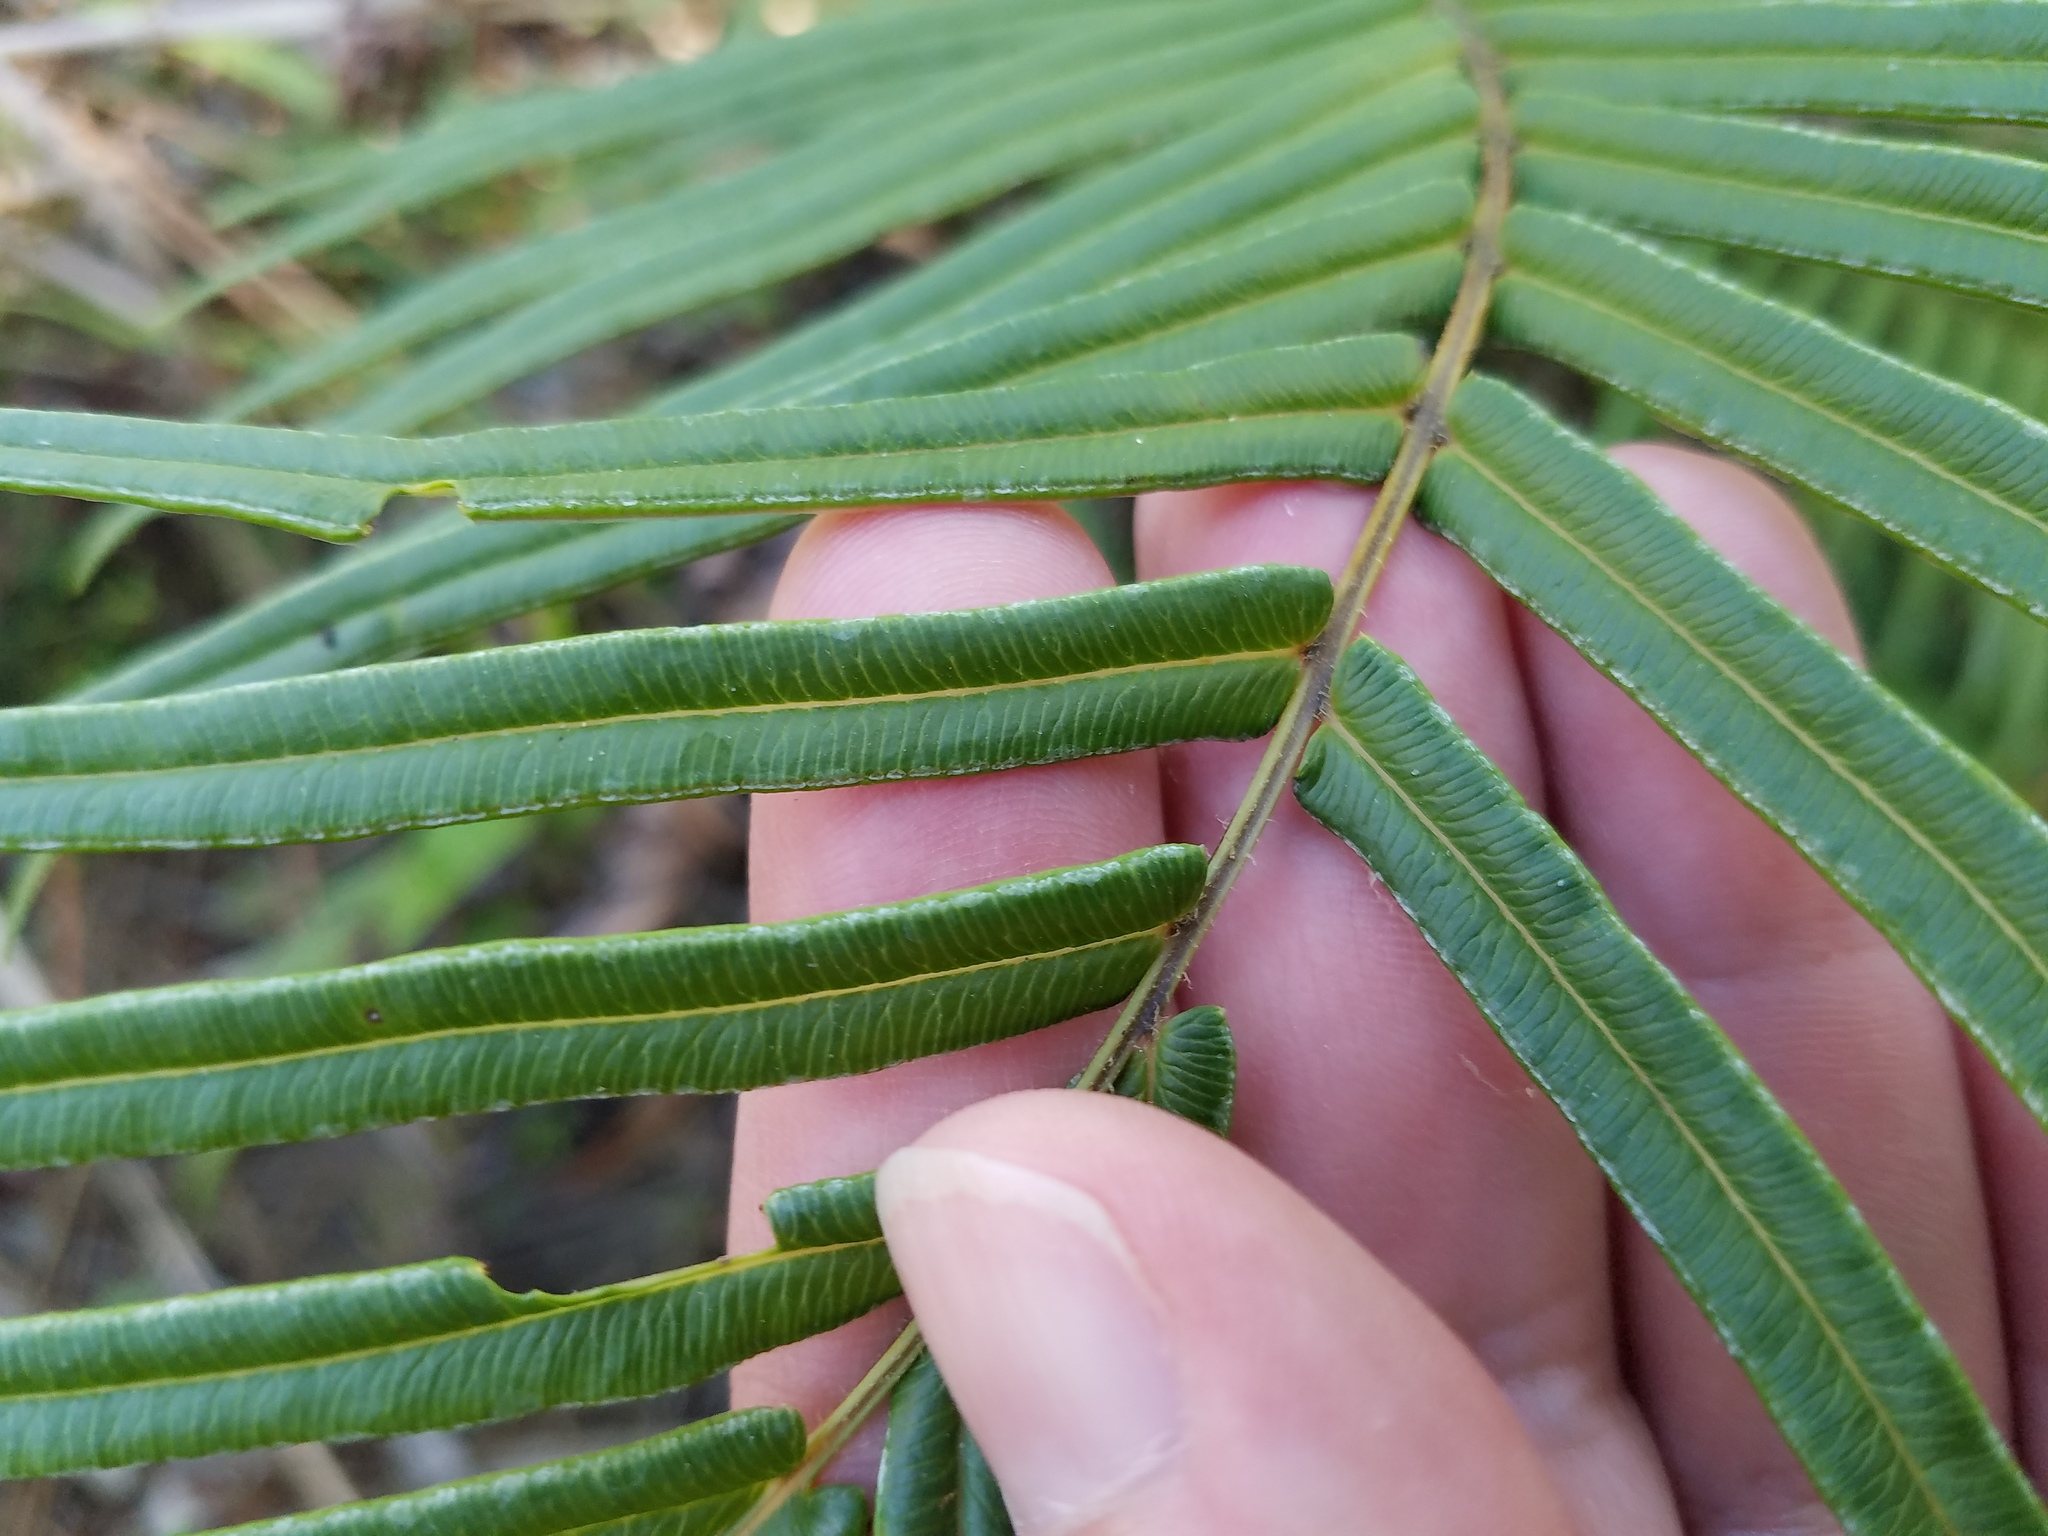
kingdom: Plantae
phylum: Tracheophyta
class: Polypodiopsida
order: Polypodiales
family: Pteridaceae
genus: Pteris
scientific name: Pteris vittata
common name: Ladder brake
